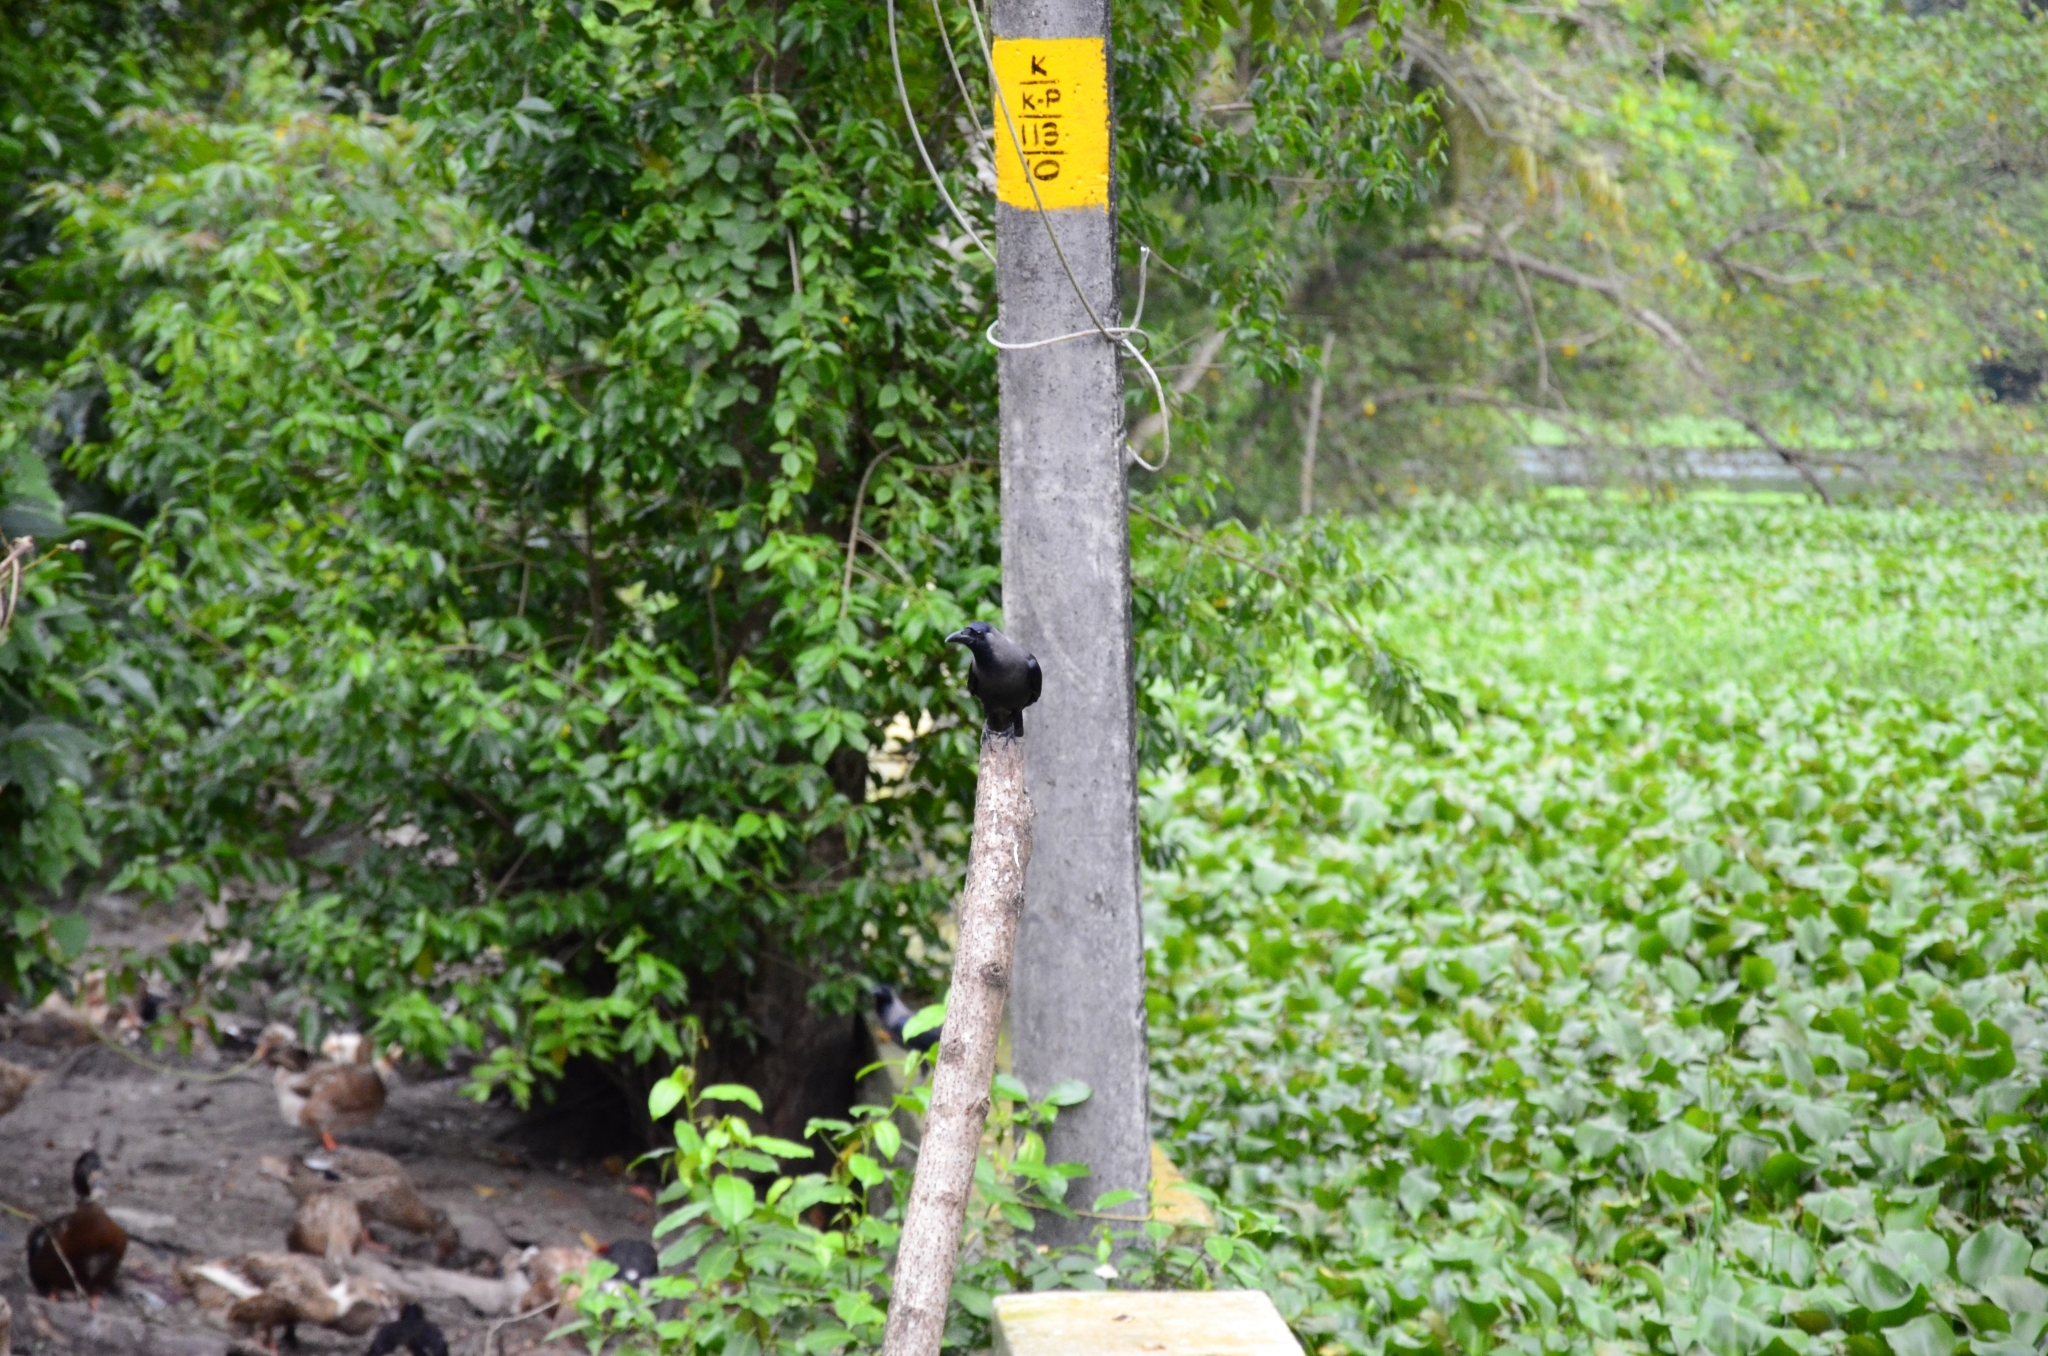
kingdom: Animalia
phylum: Chordata
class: Aves
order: Passeriformes
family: Corvidae
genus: Corvus
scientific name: Corvus splendens
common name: House crow
